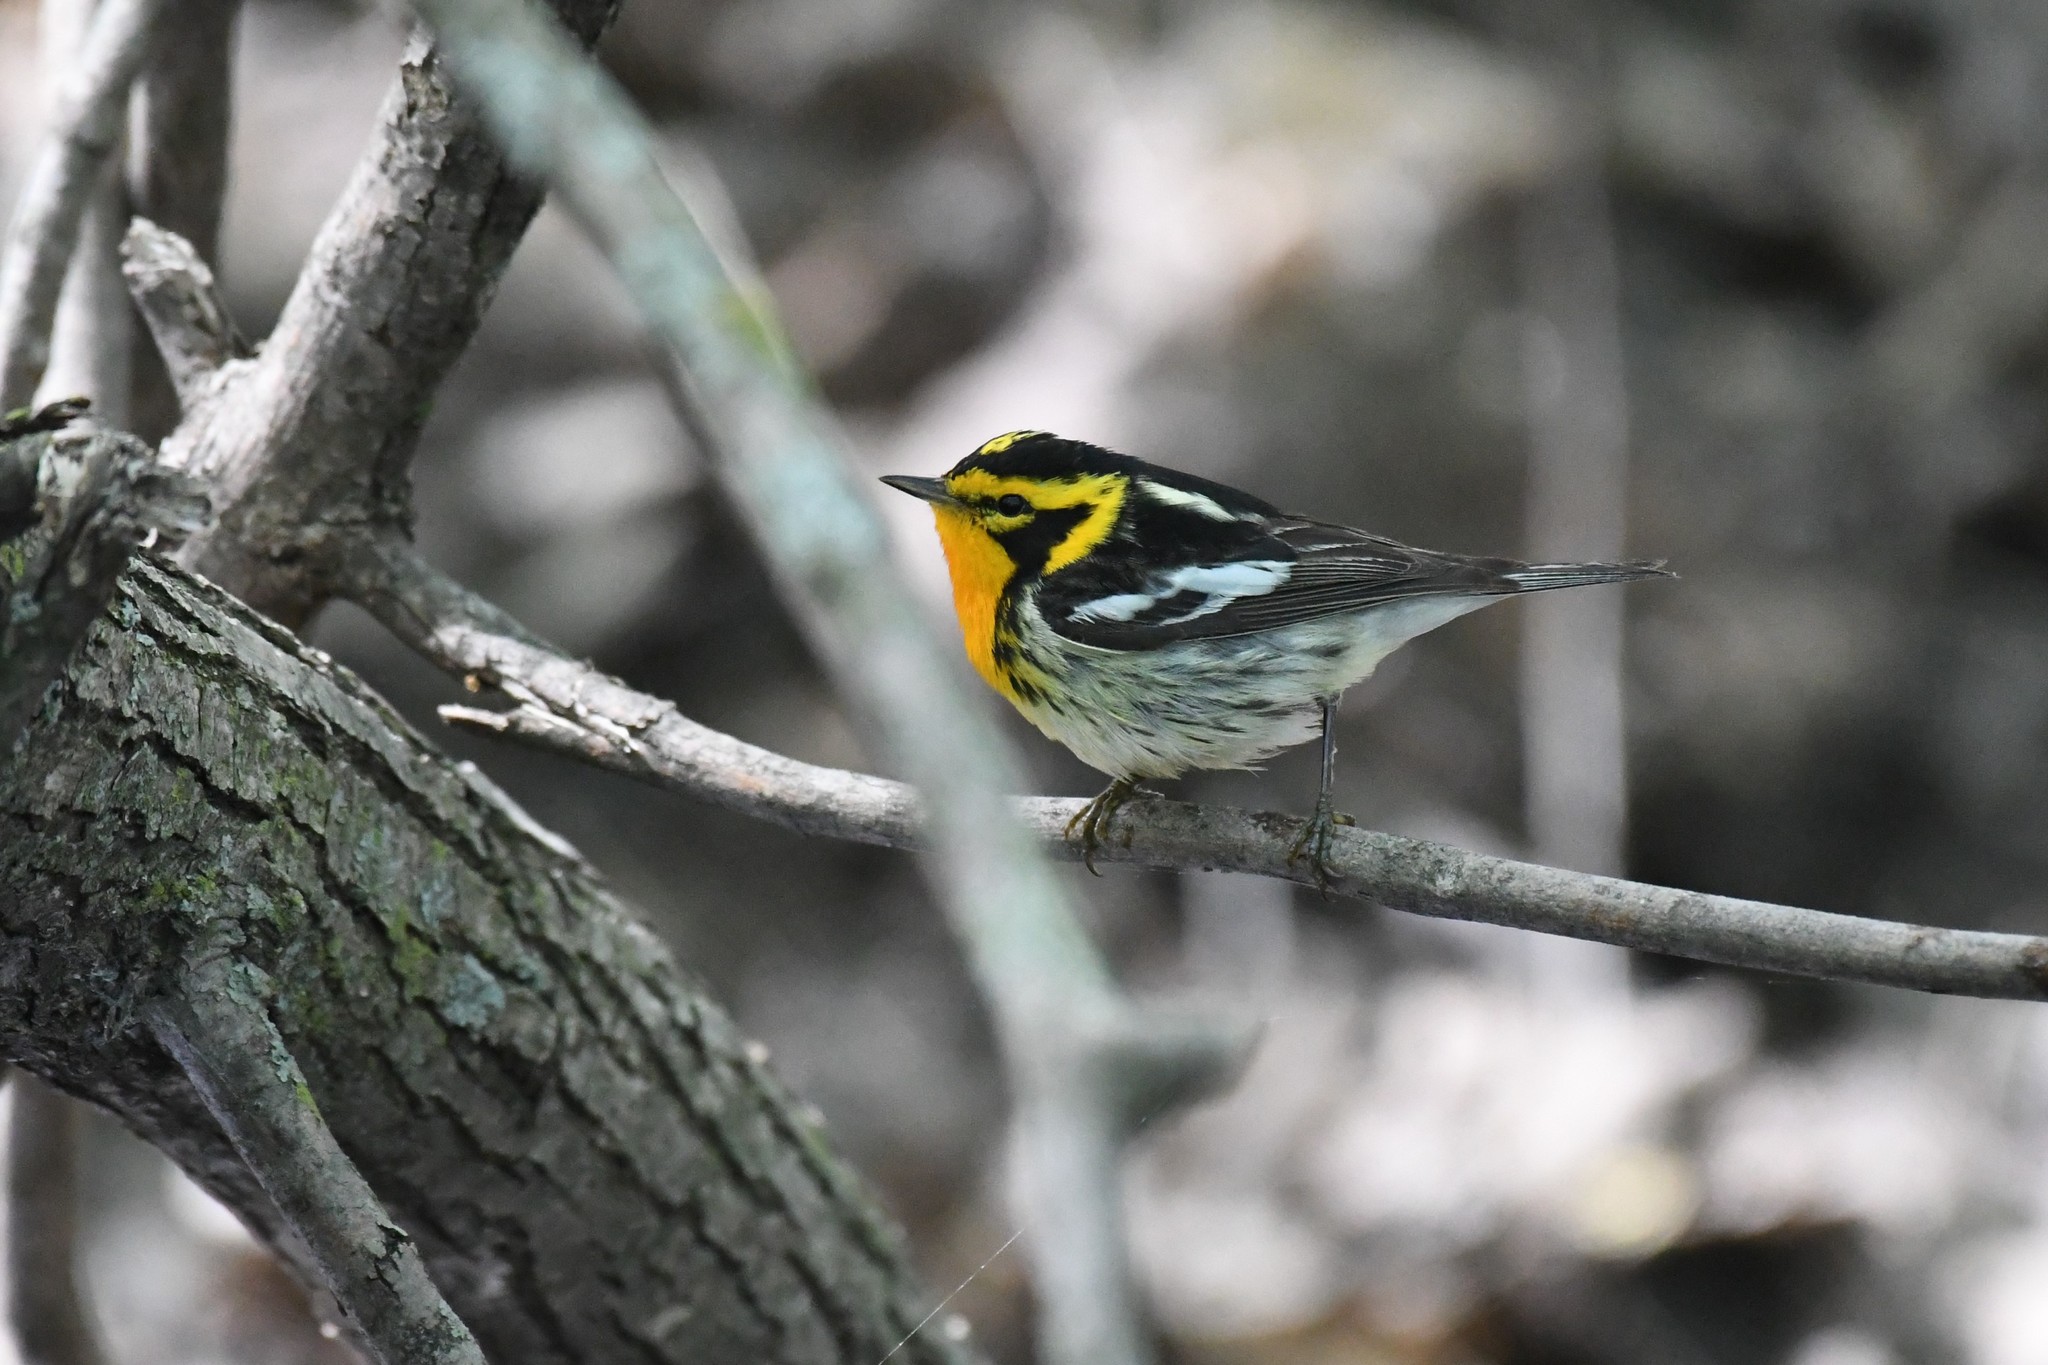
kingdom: Animalia
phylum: Chordata
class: Aves
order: Passeriformes
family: Parulidae
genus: Setophaga
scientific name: Setophaga fusca
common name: Blackburnian warbler
